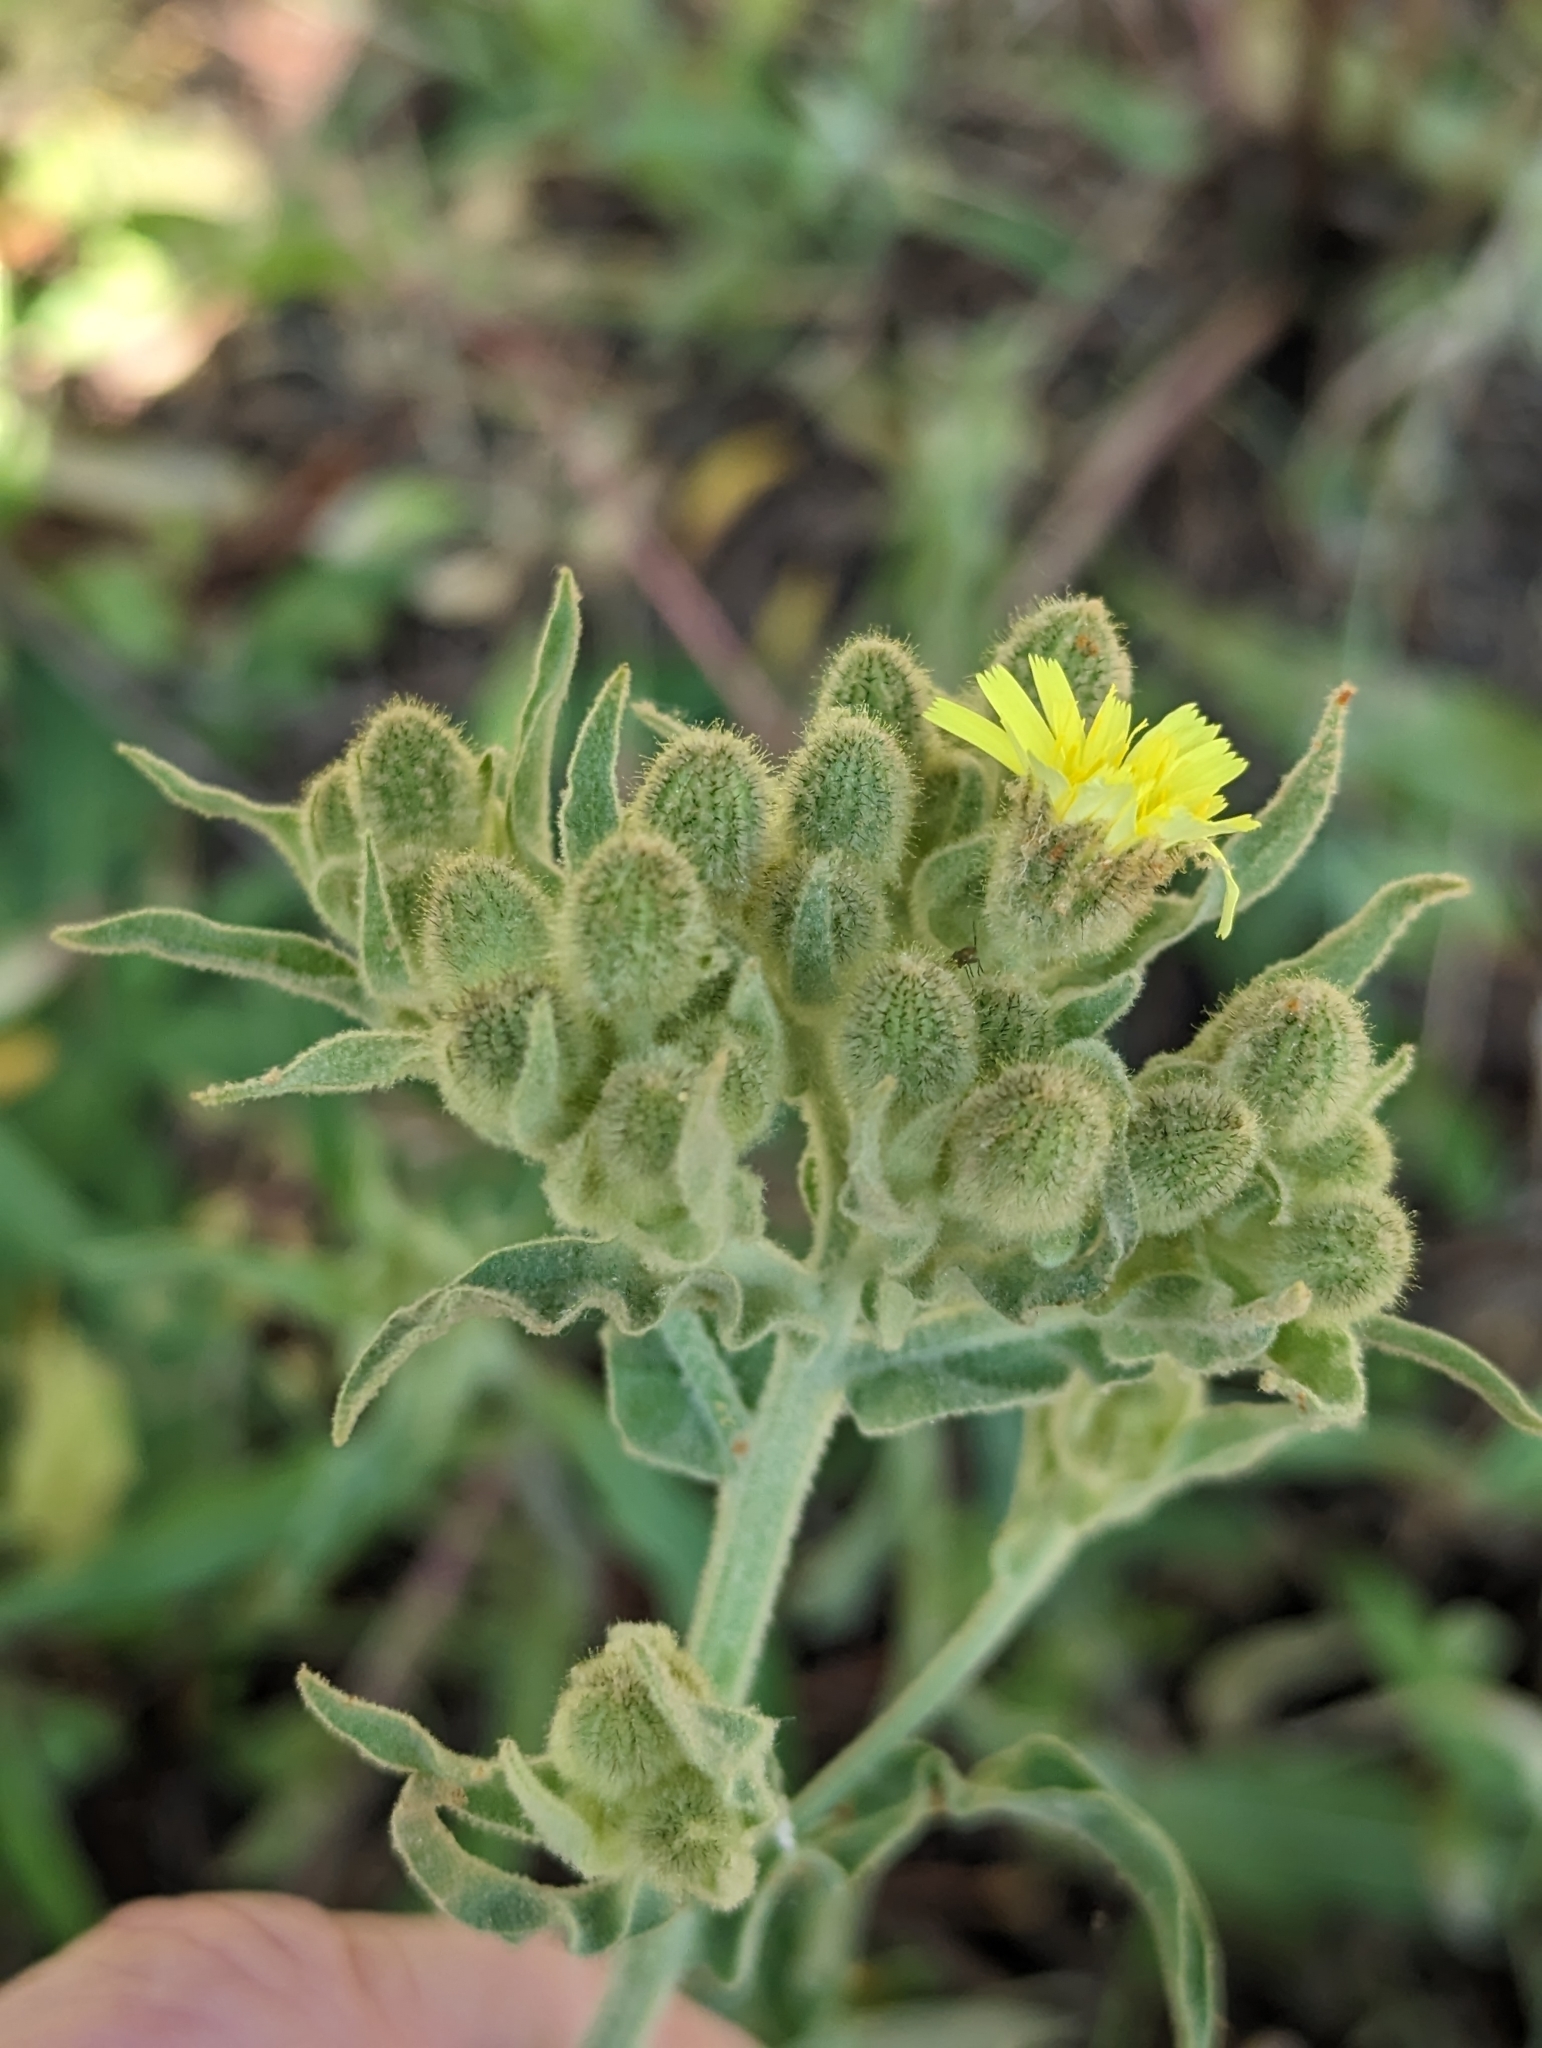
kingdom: Plantae
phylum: Tracheophyta
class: Magnoliopsida
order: Asterales
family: Asteraceae
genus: Andryala
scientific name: Andryala integrifolia
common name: Common andryala
